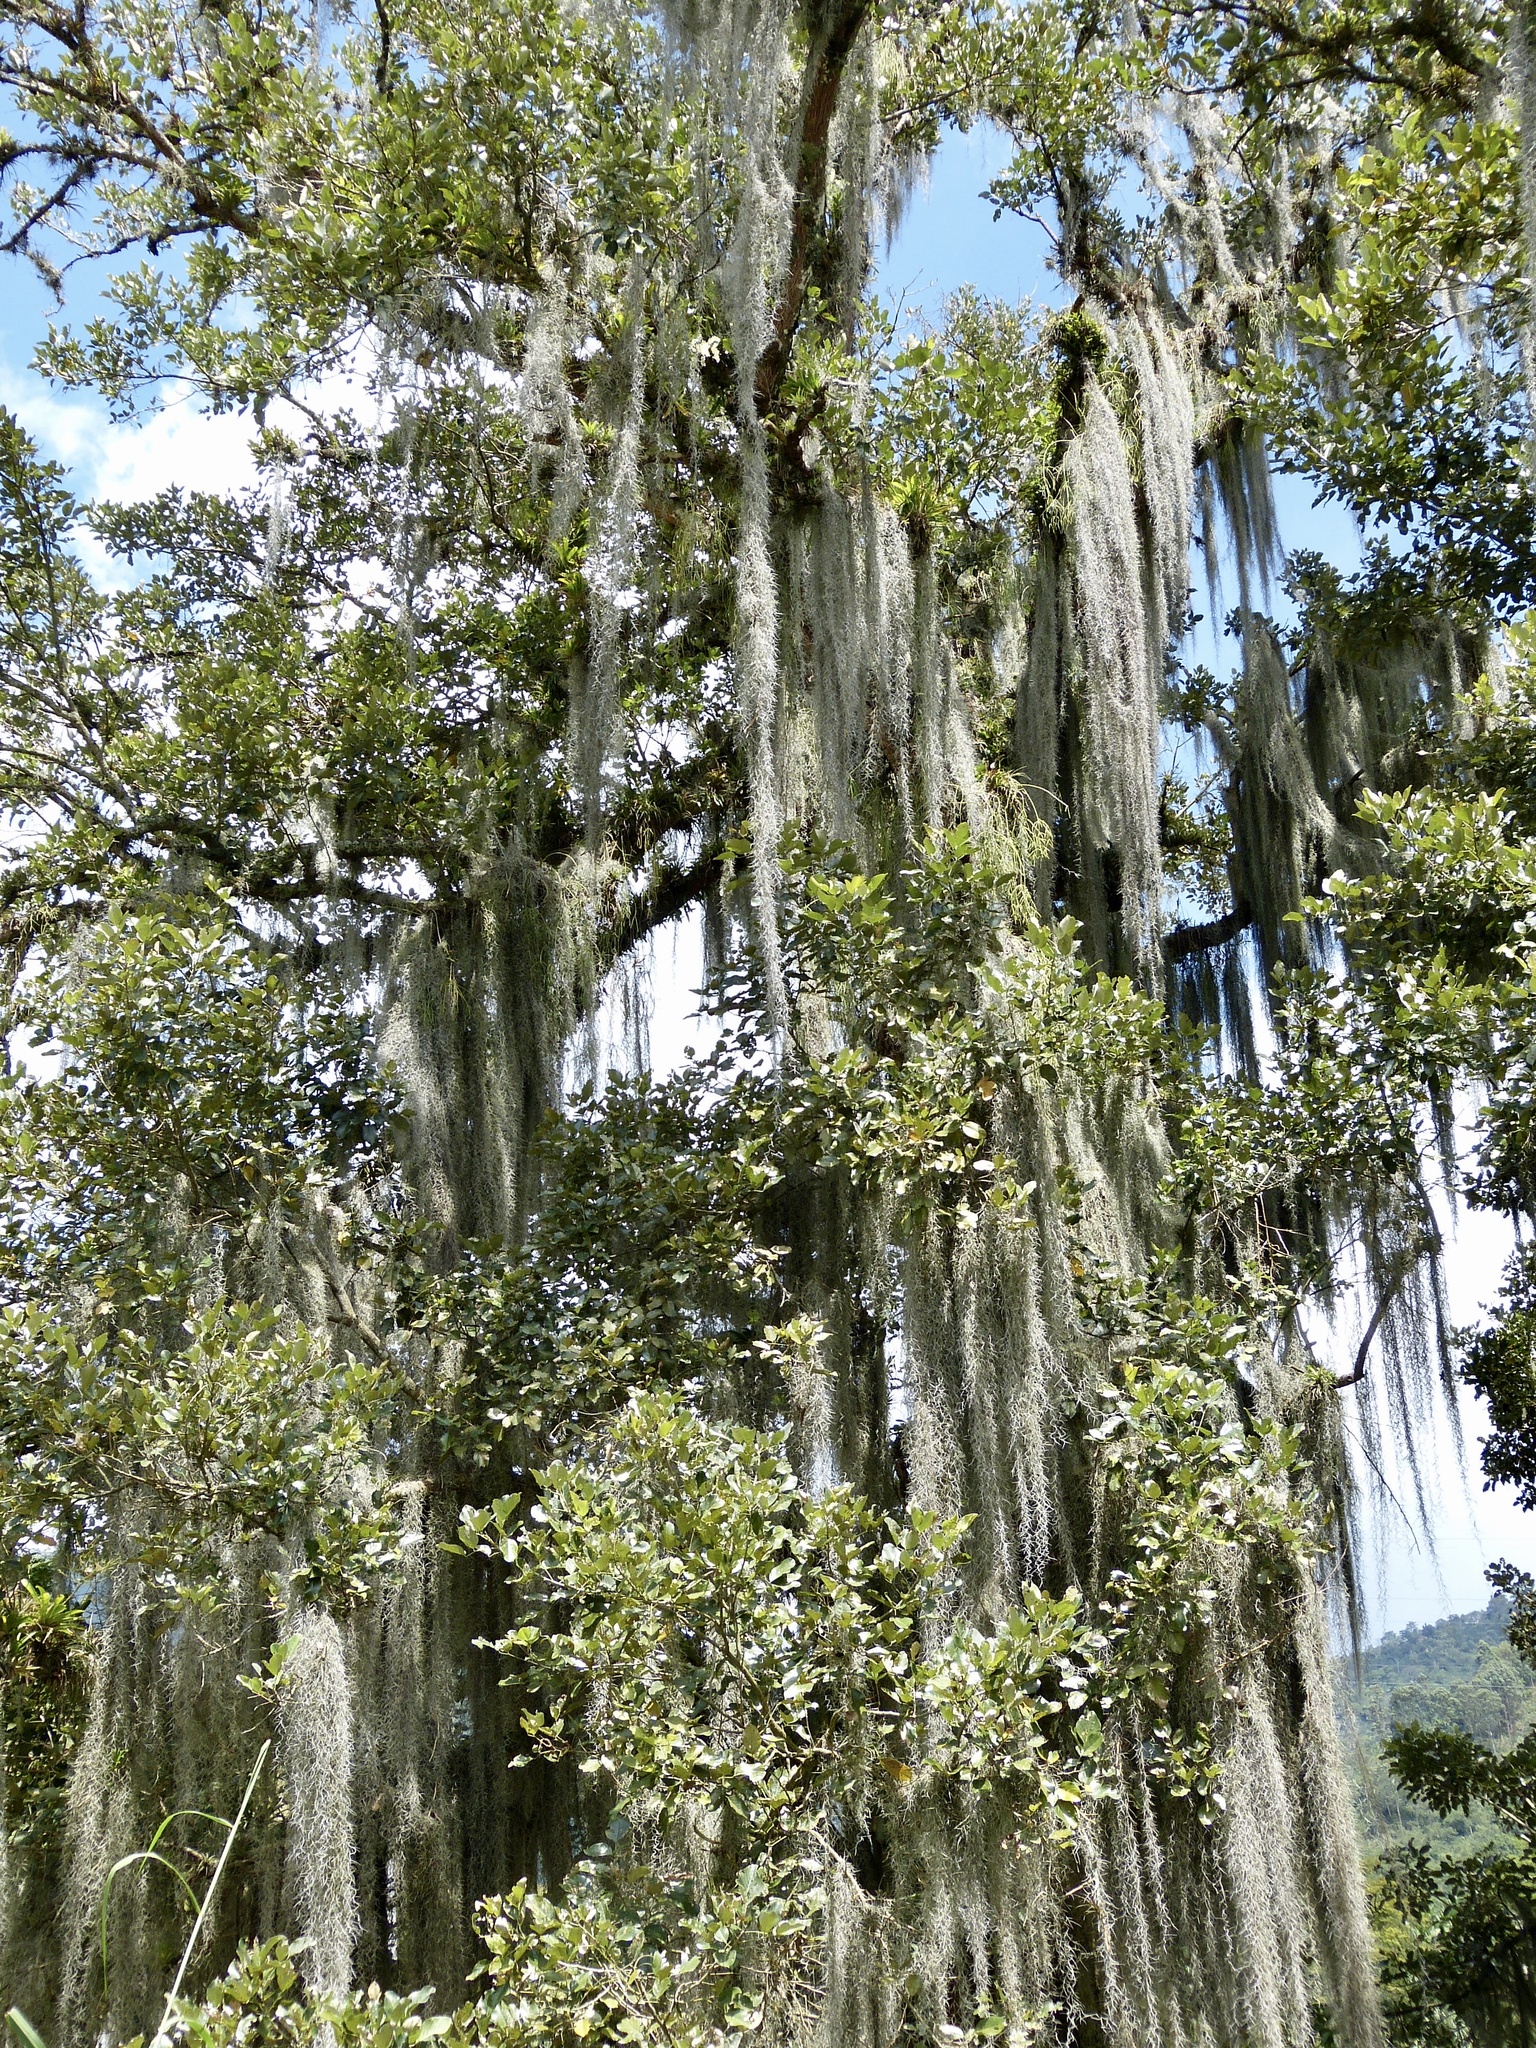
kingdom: Plantae
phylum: Tracheophyta
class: Liliopsida
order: Poales
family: Bromeliaceae
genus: Tillandsia
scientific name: Tillandsia usneoides
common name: Spanish moss
